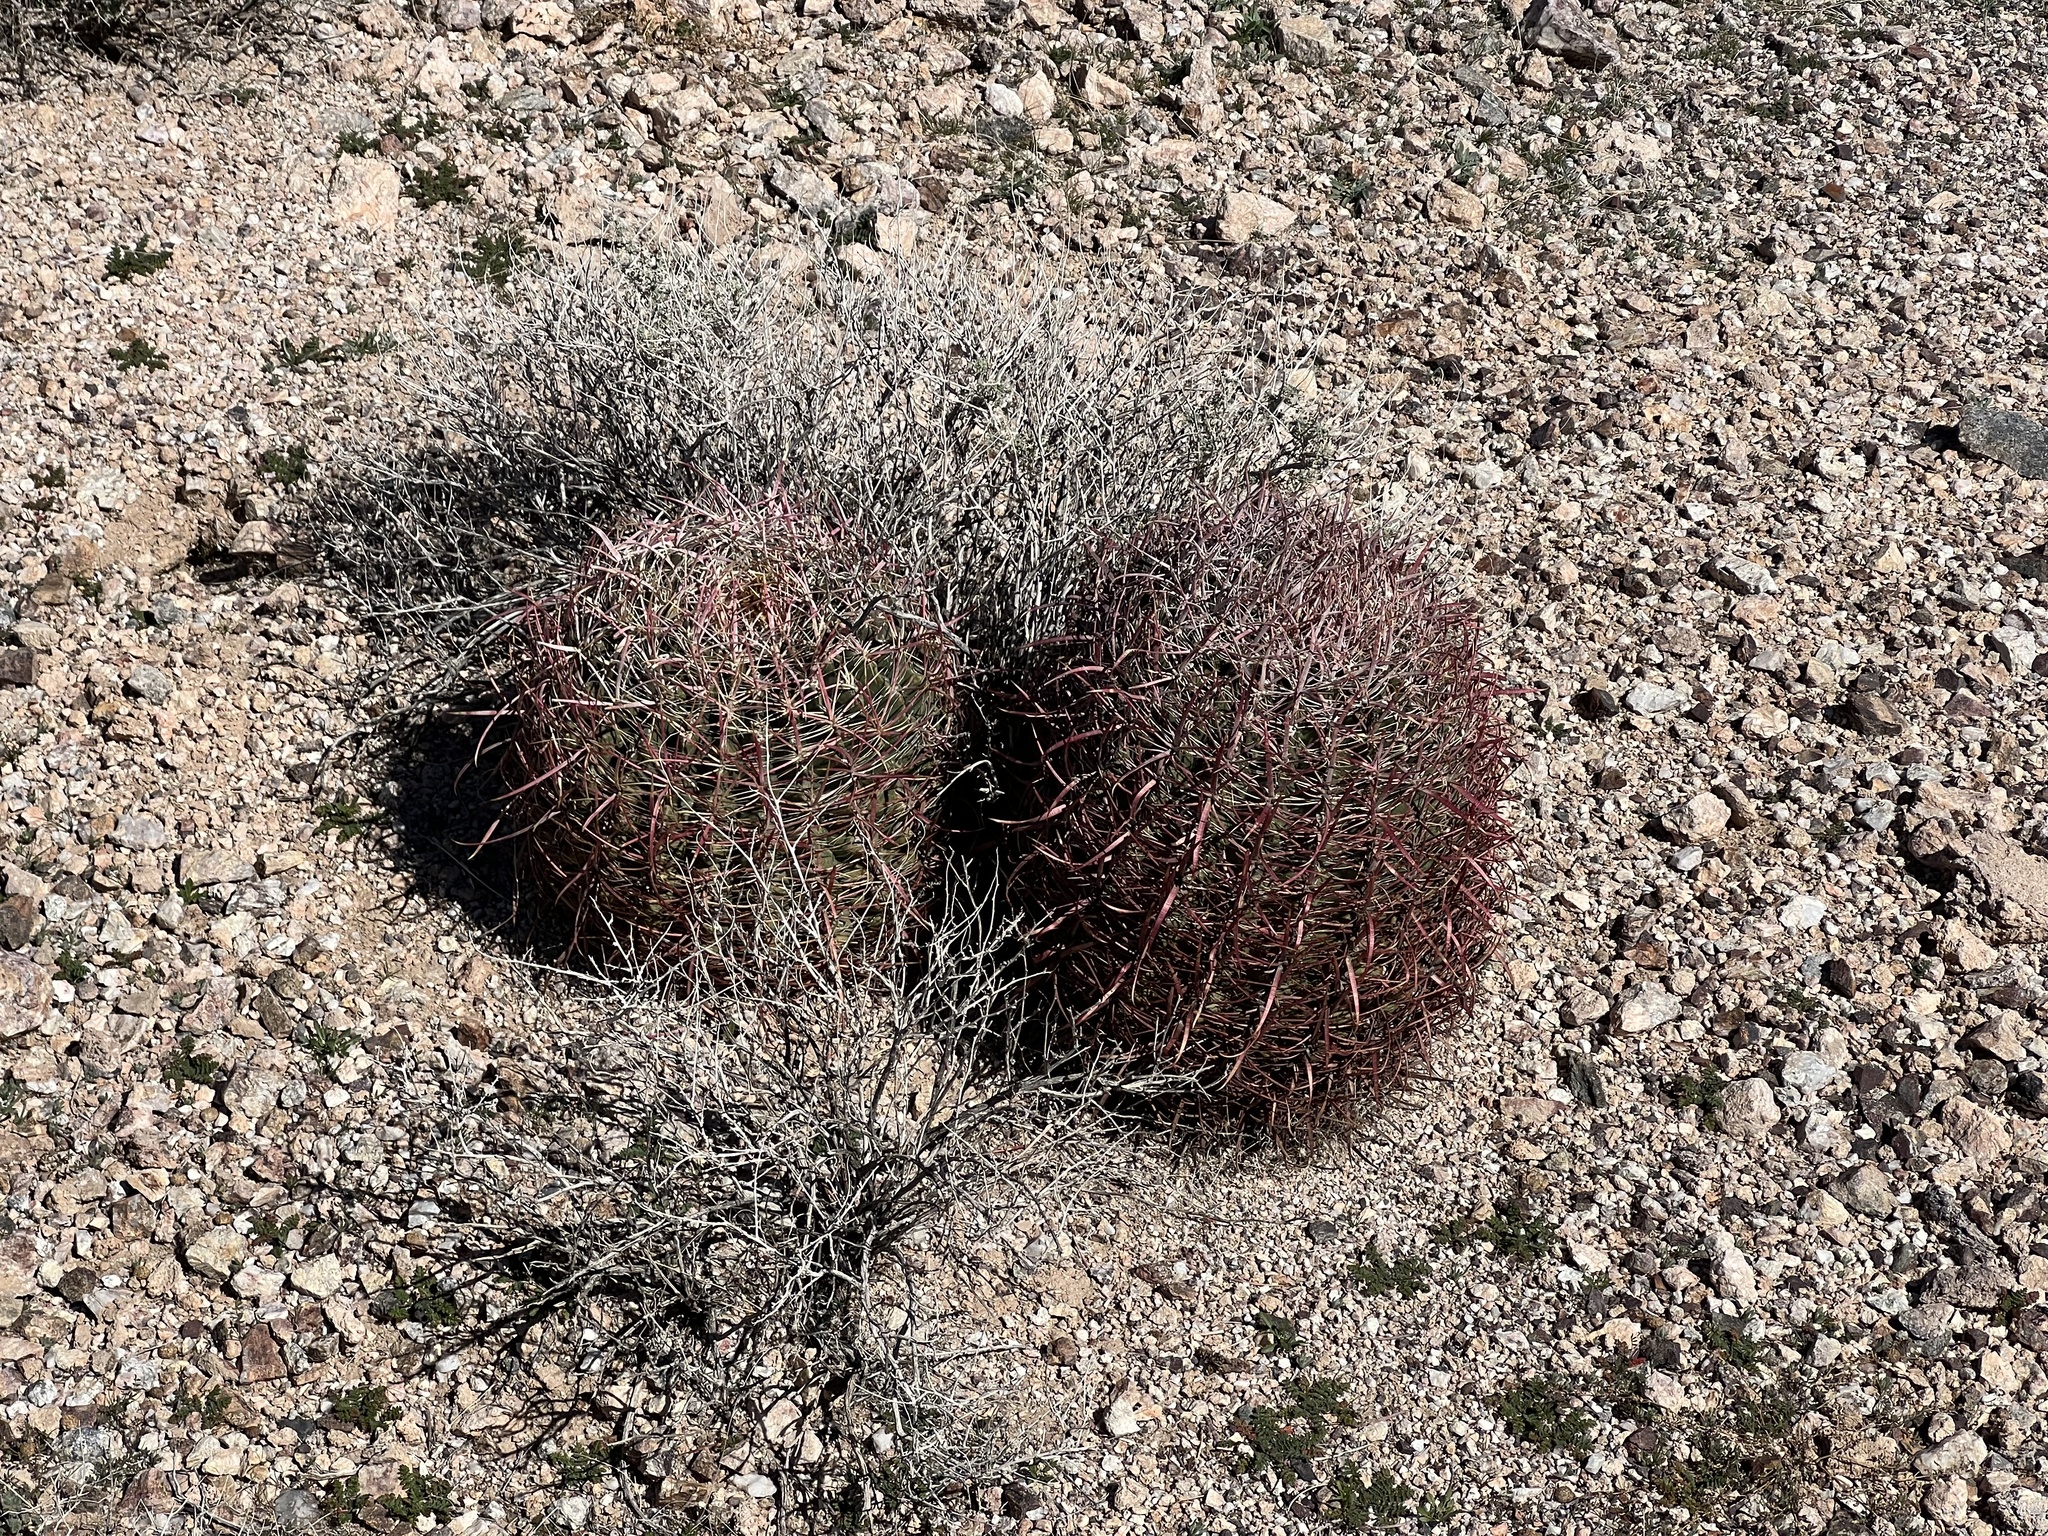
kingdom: Plantae
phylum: Tracheophyta
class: Magnoliopsida
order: Caryophyllales
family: Cactaceae
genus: Ferocactus
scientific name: Ferocactus cylindraceus
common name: California barrel cactus
